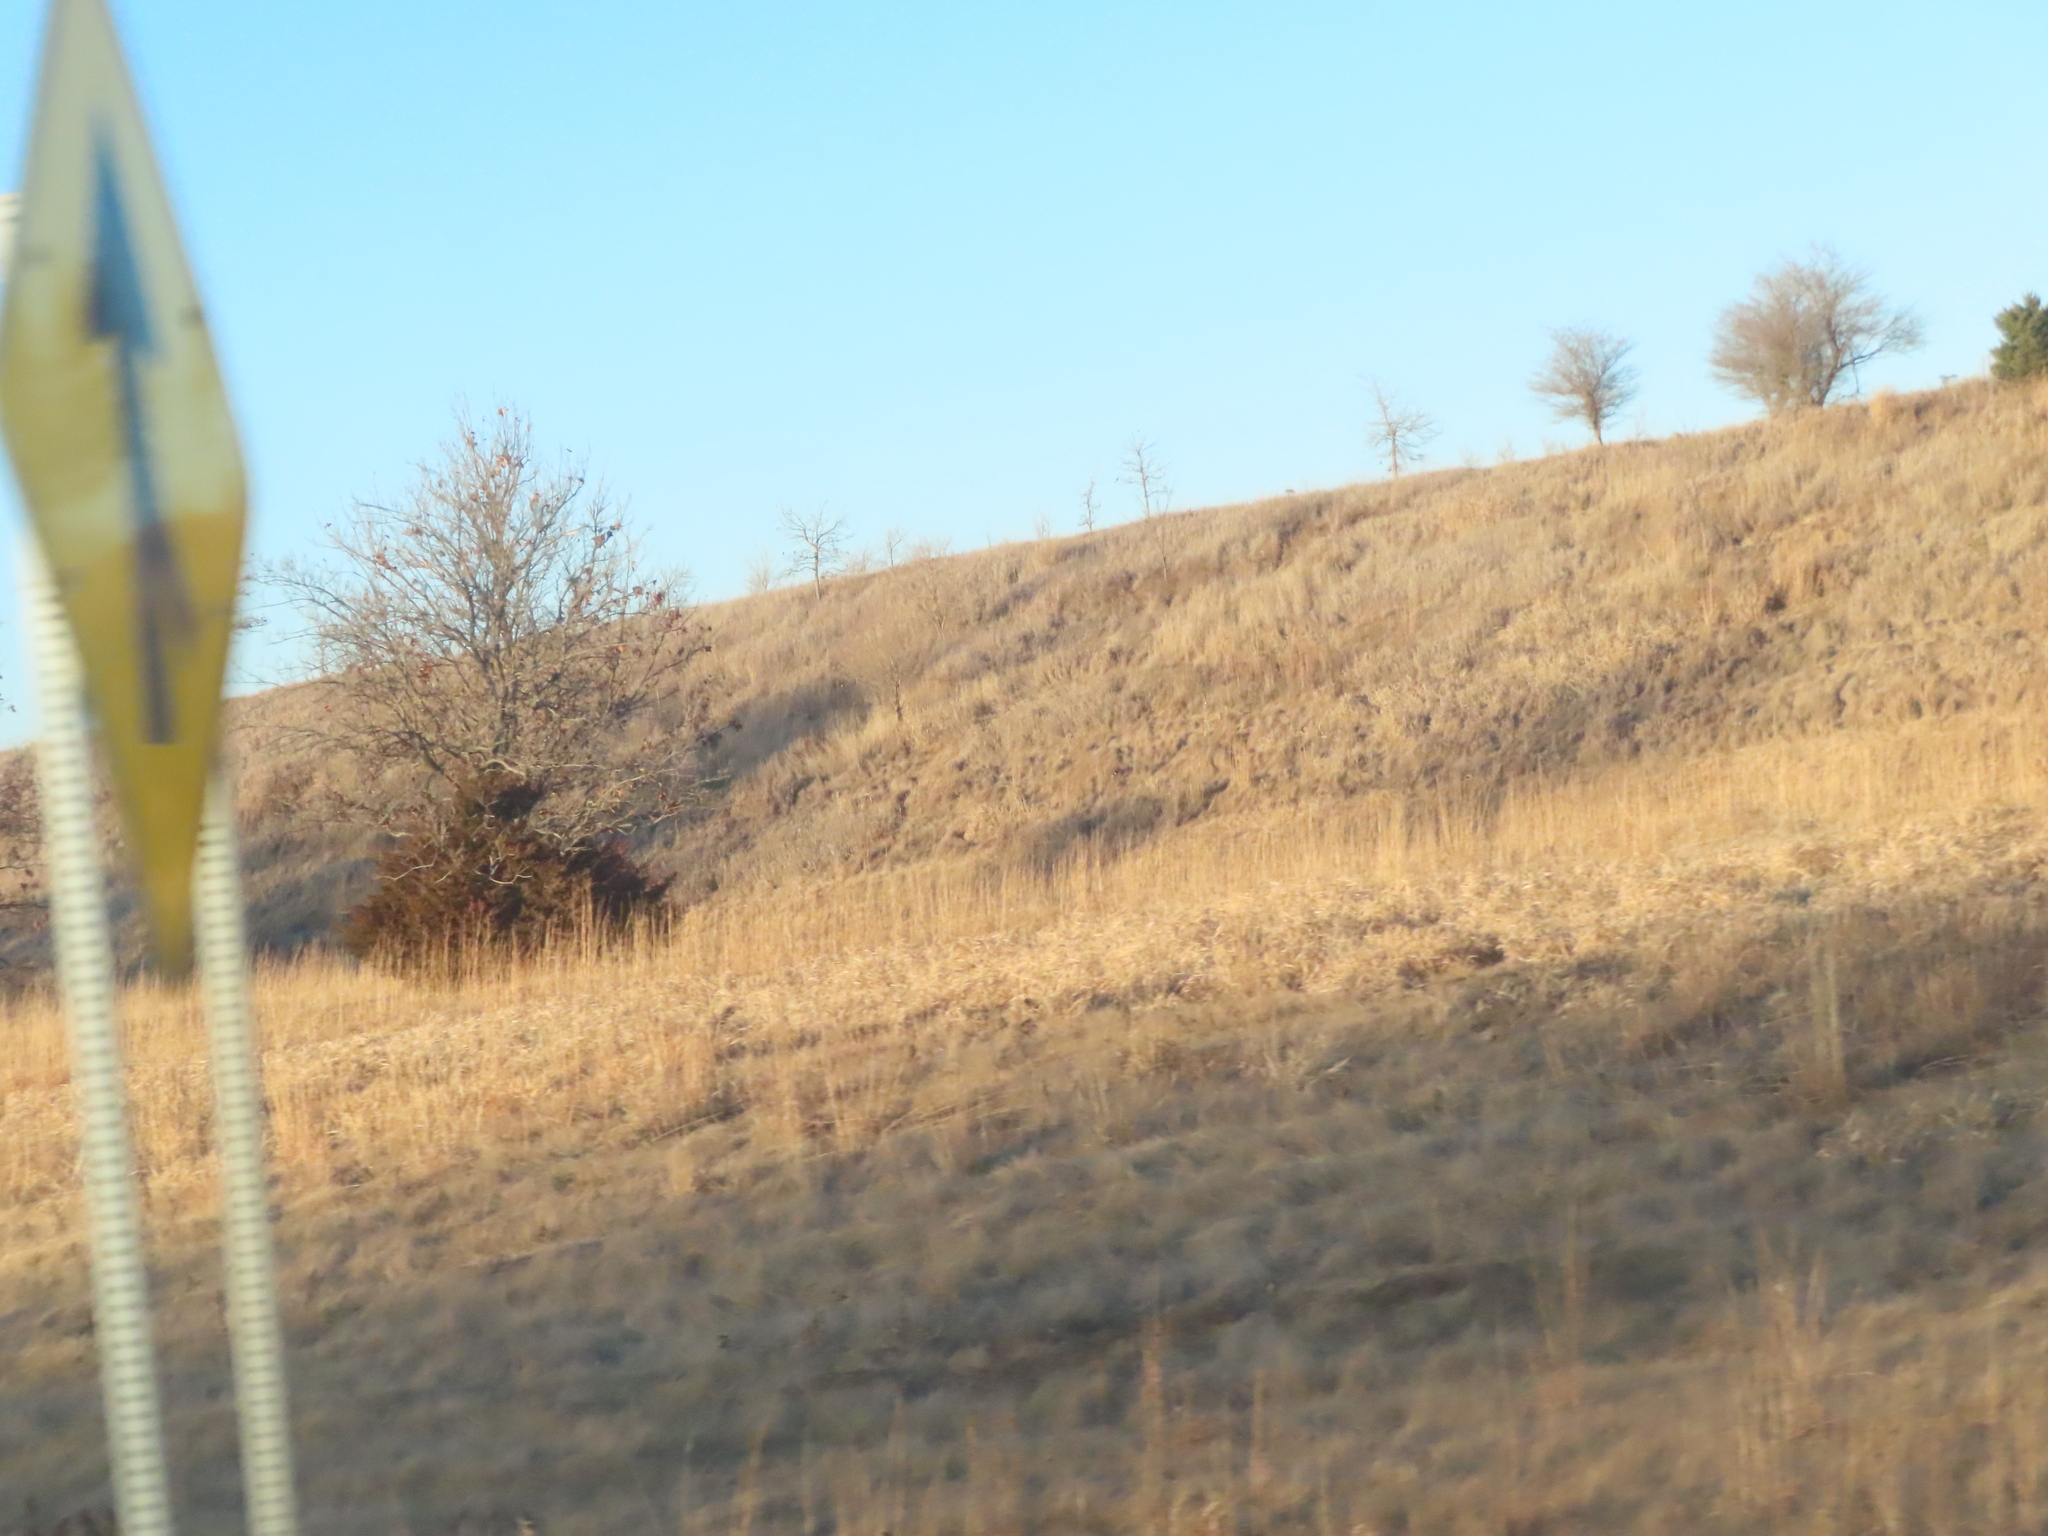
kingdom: Plantae
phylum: Tracheophyta
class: Pinopsida
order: Pinales
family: Cupressaceae
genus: Juniperus
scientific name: Juniperus virginiana
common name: Red juniper
